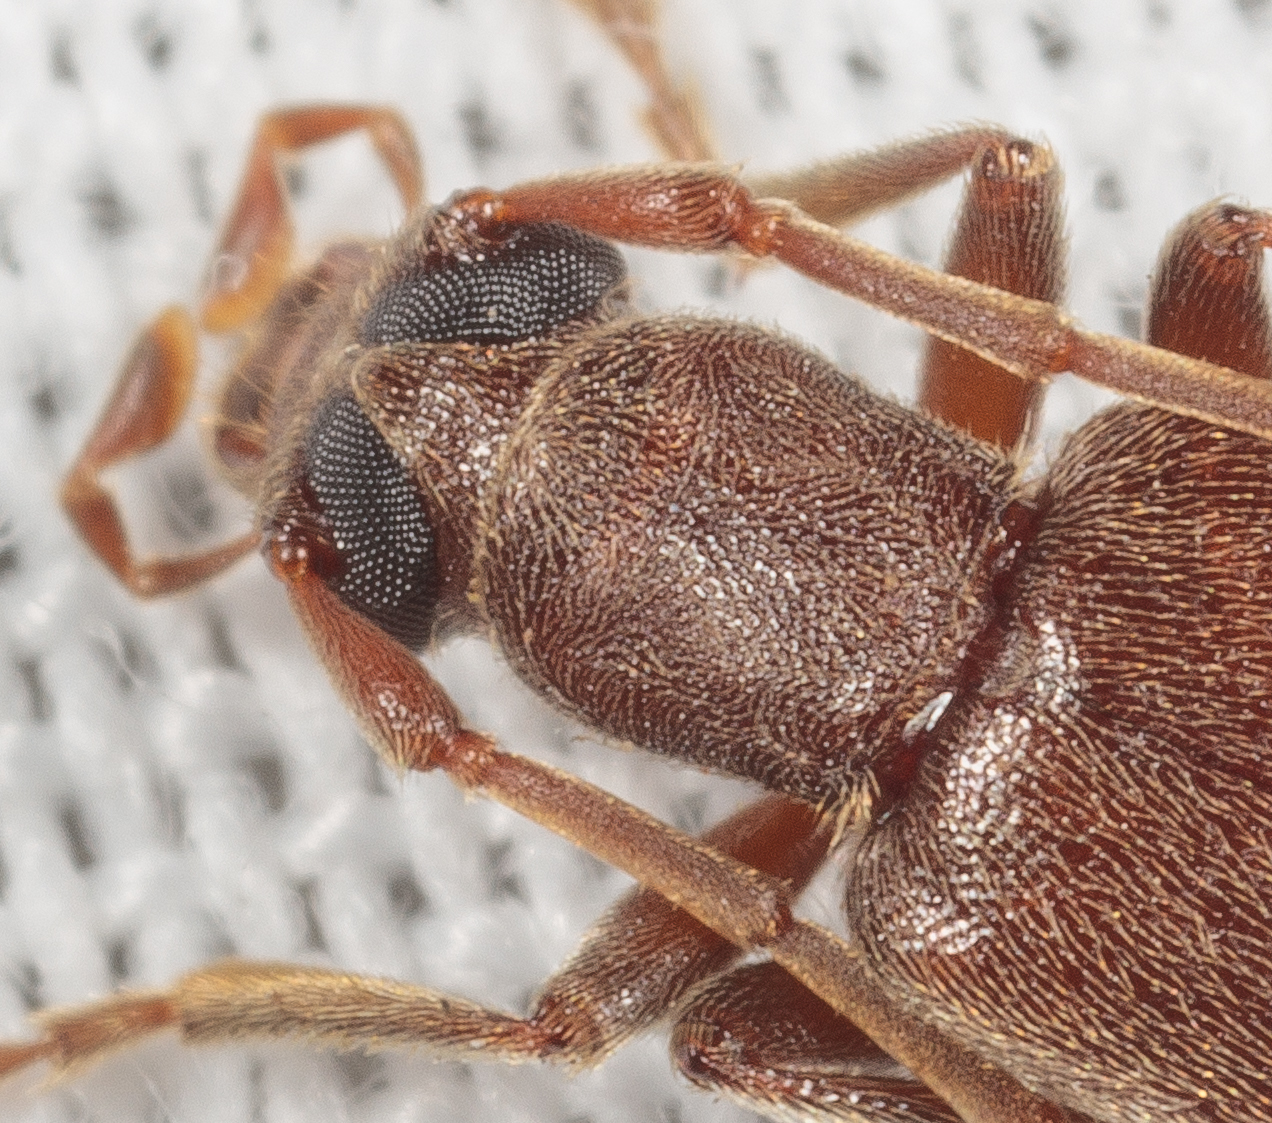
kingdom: Animalia
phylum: Arthropoda
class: Insecta
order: Coleoptera
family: Oedemeridae
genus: Sparedrus
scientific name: Sparedrus aspersus
